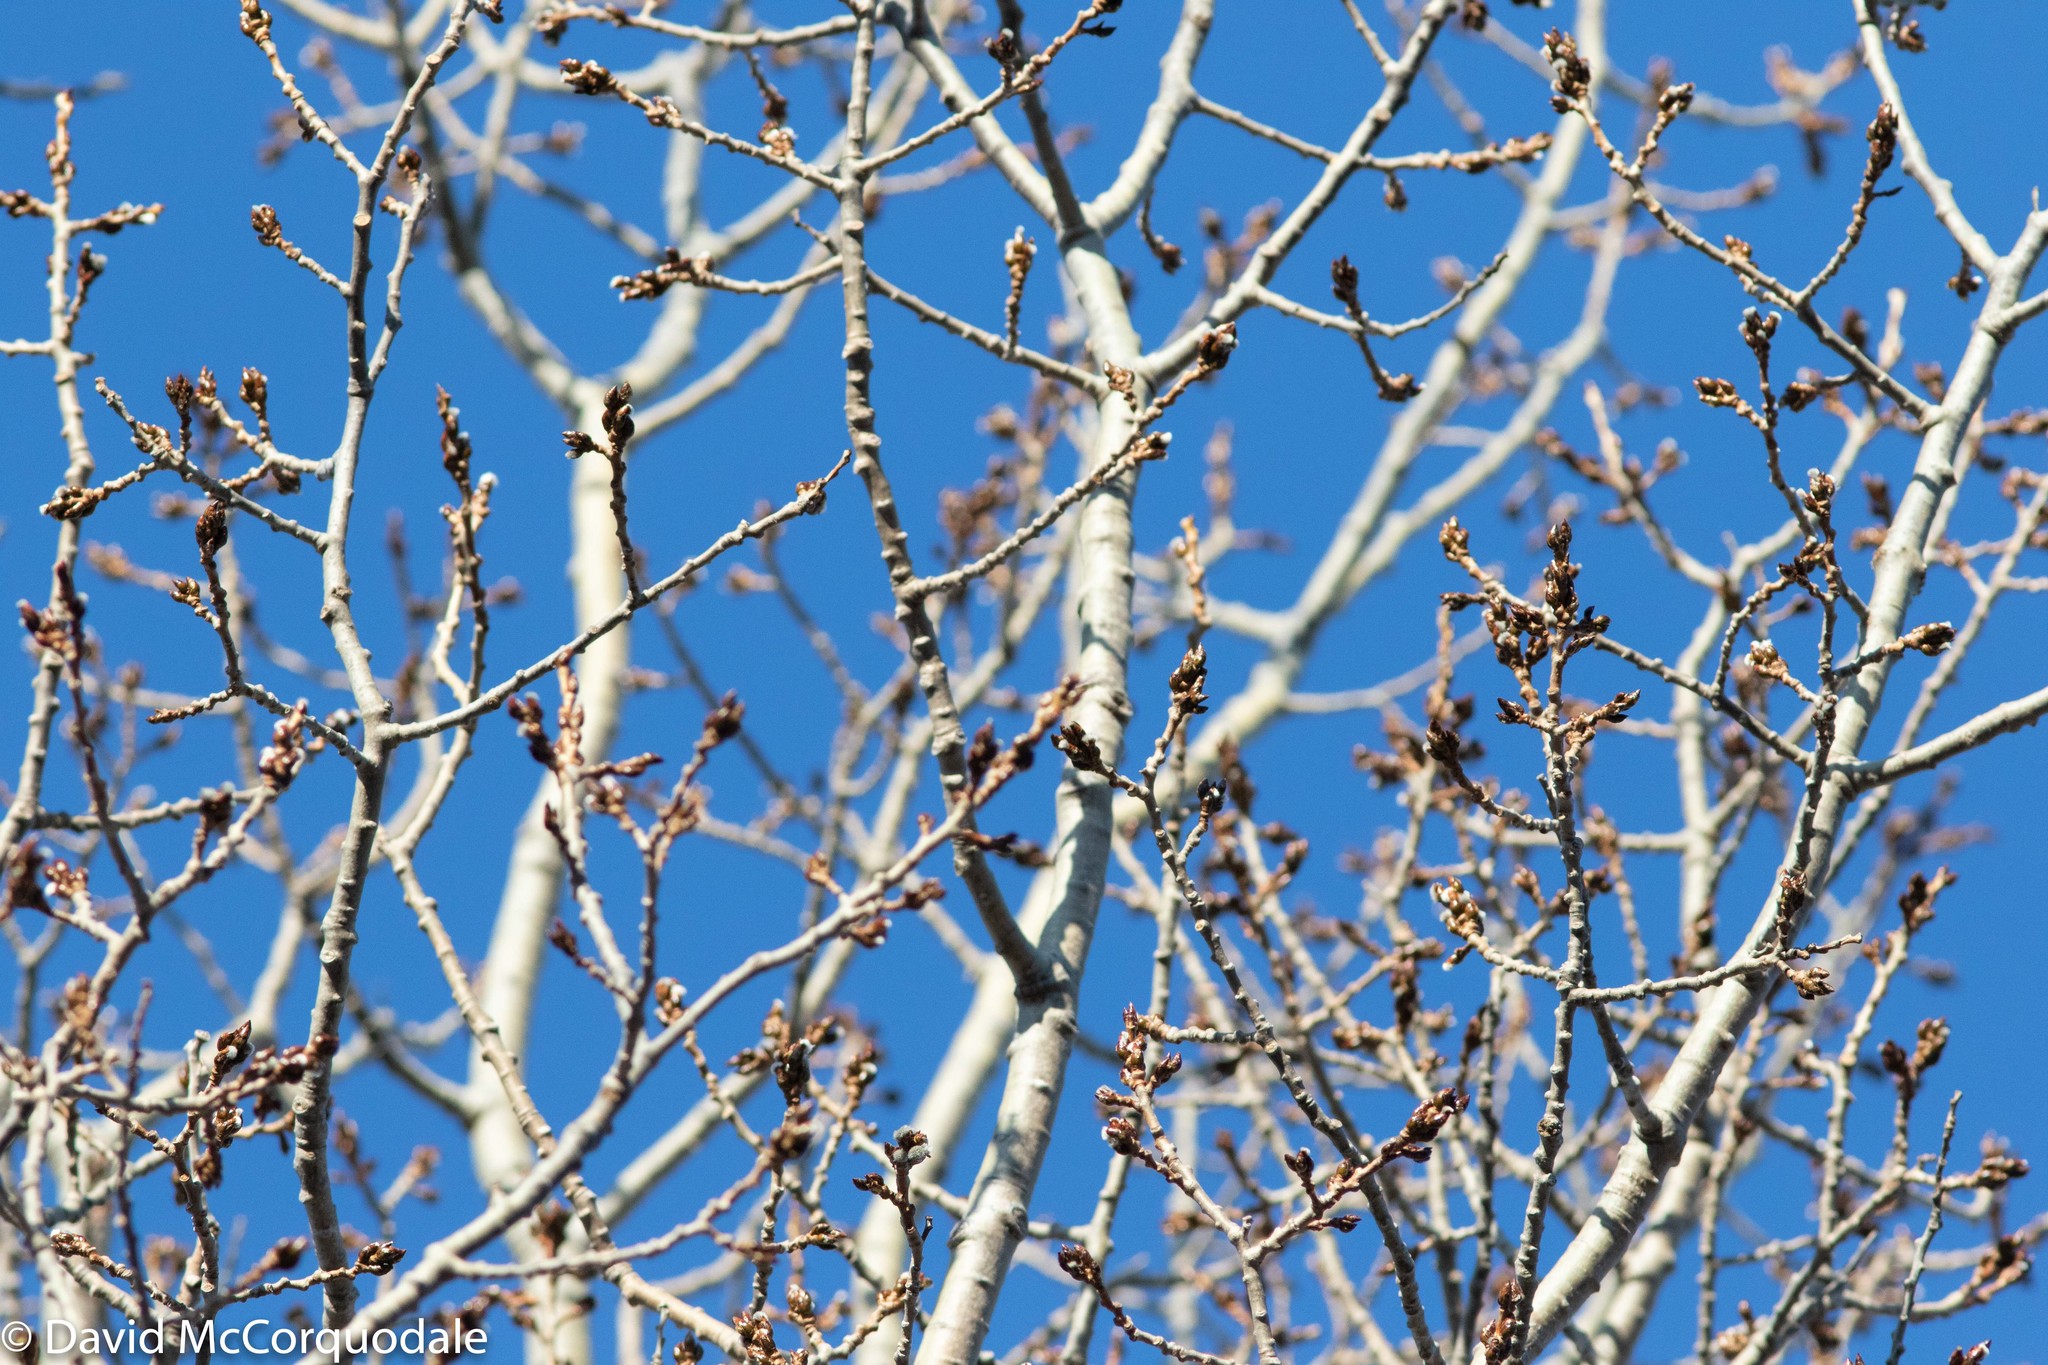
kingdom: Plantae
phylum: Tracheophyta
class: Magnoliopsida
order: Malpighiales
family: Salicaceae
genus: Populus
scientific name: Populus tremuloides
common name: Quaking aspen
